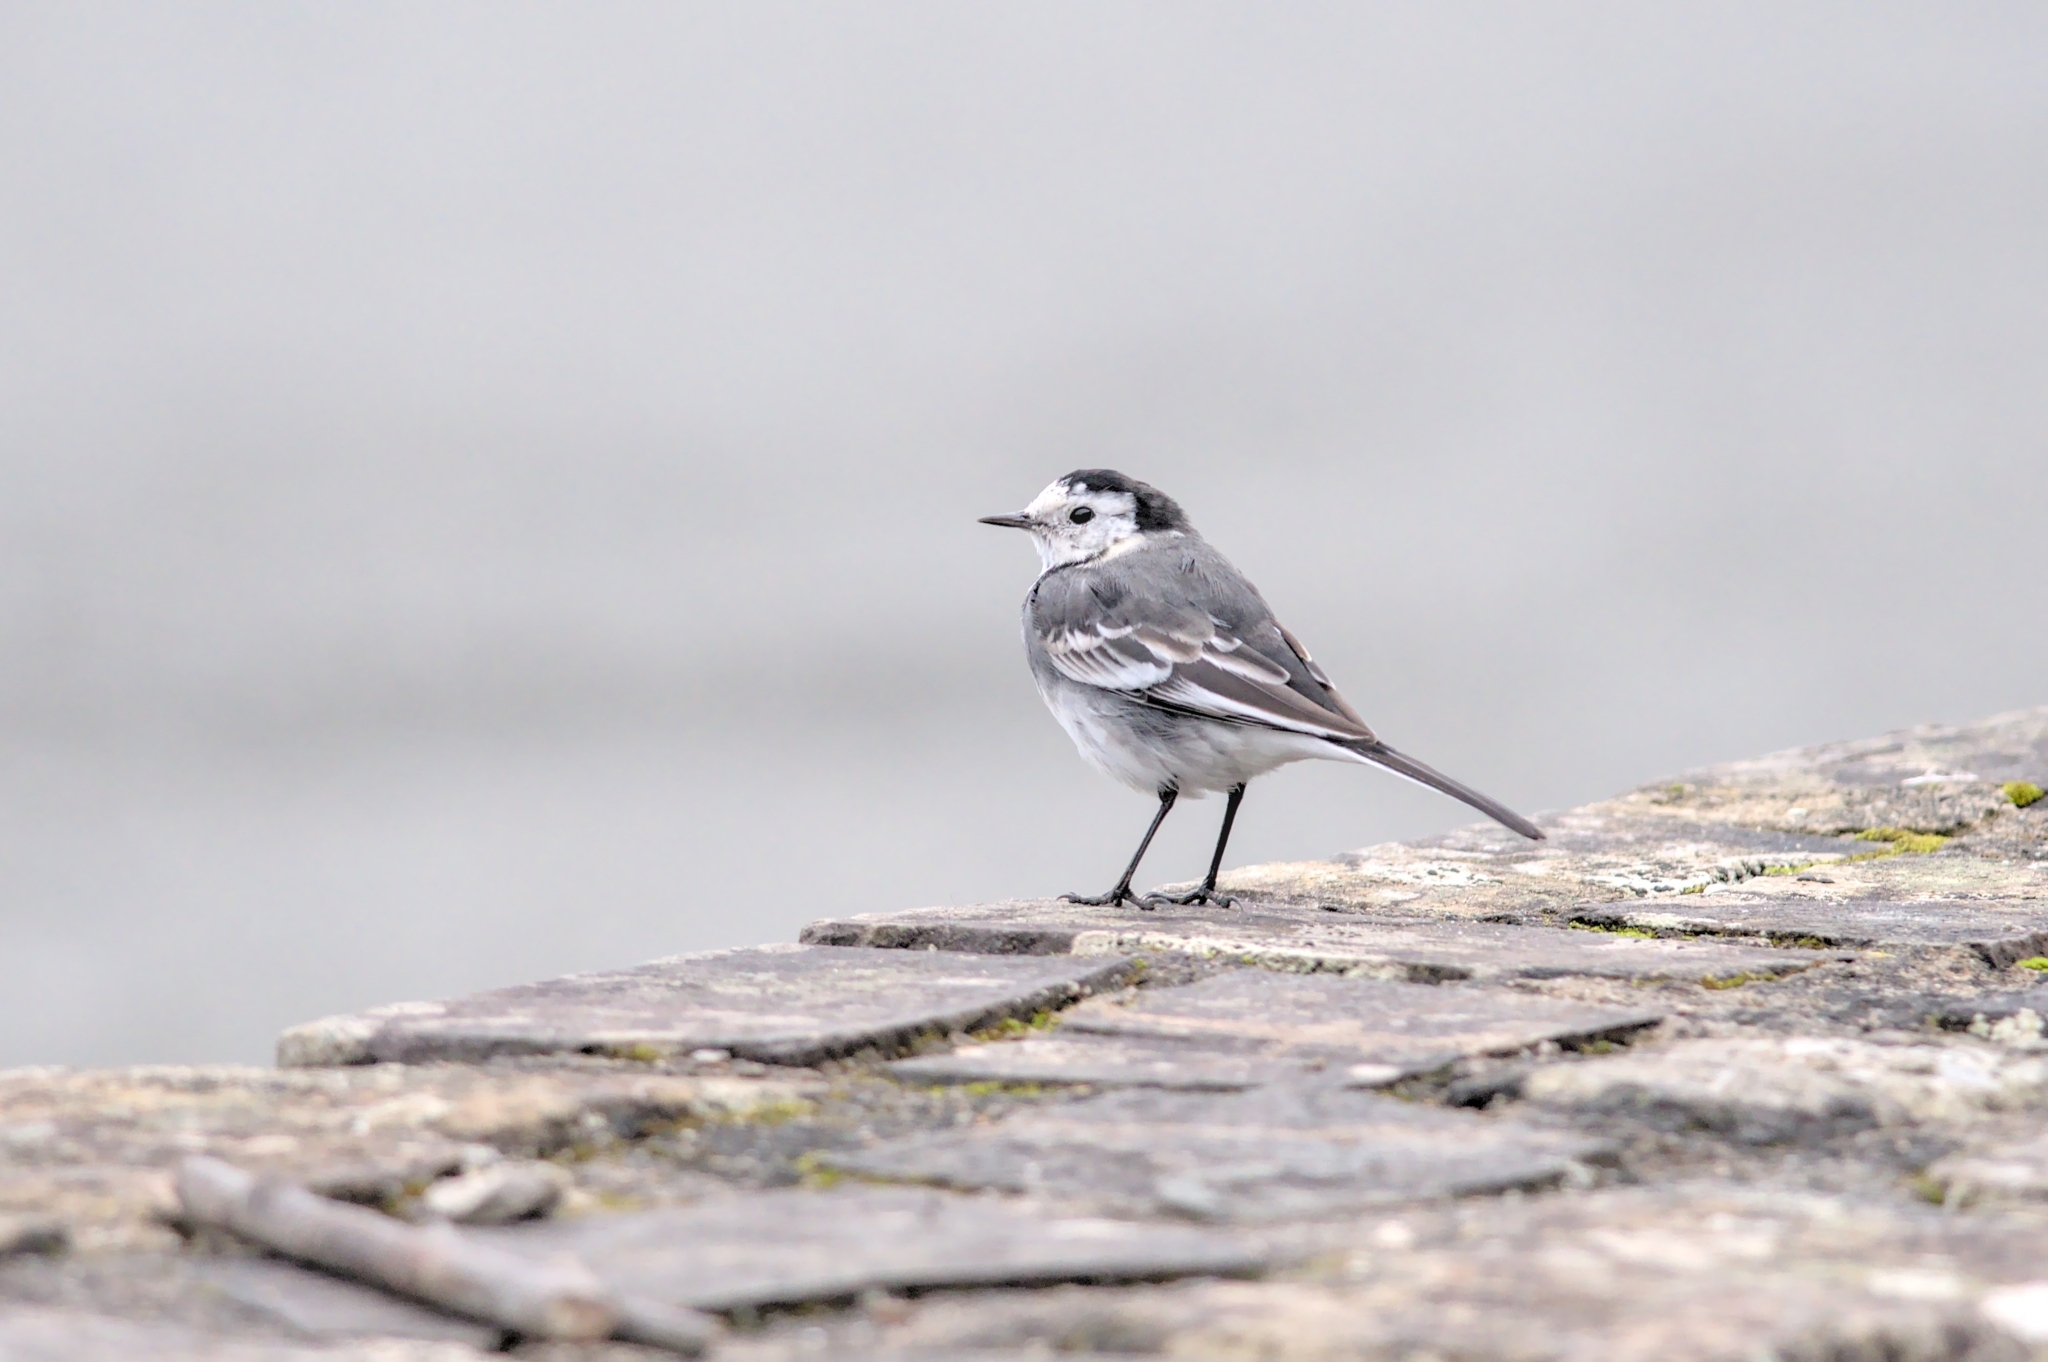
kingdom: Animalia
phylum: Chordata
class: Aves
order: Passeriformes
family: Motacillidae
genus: Motacilla
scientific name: Motacilla alba
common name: White wagtail
